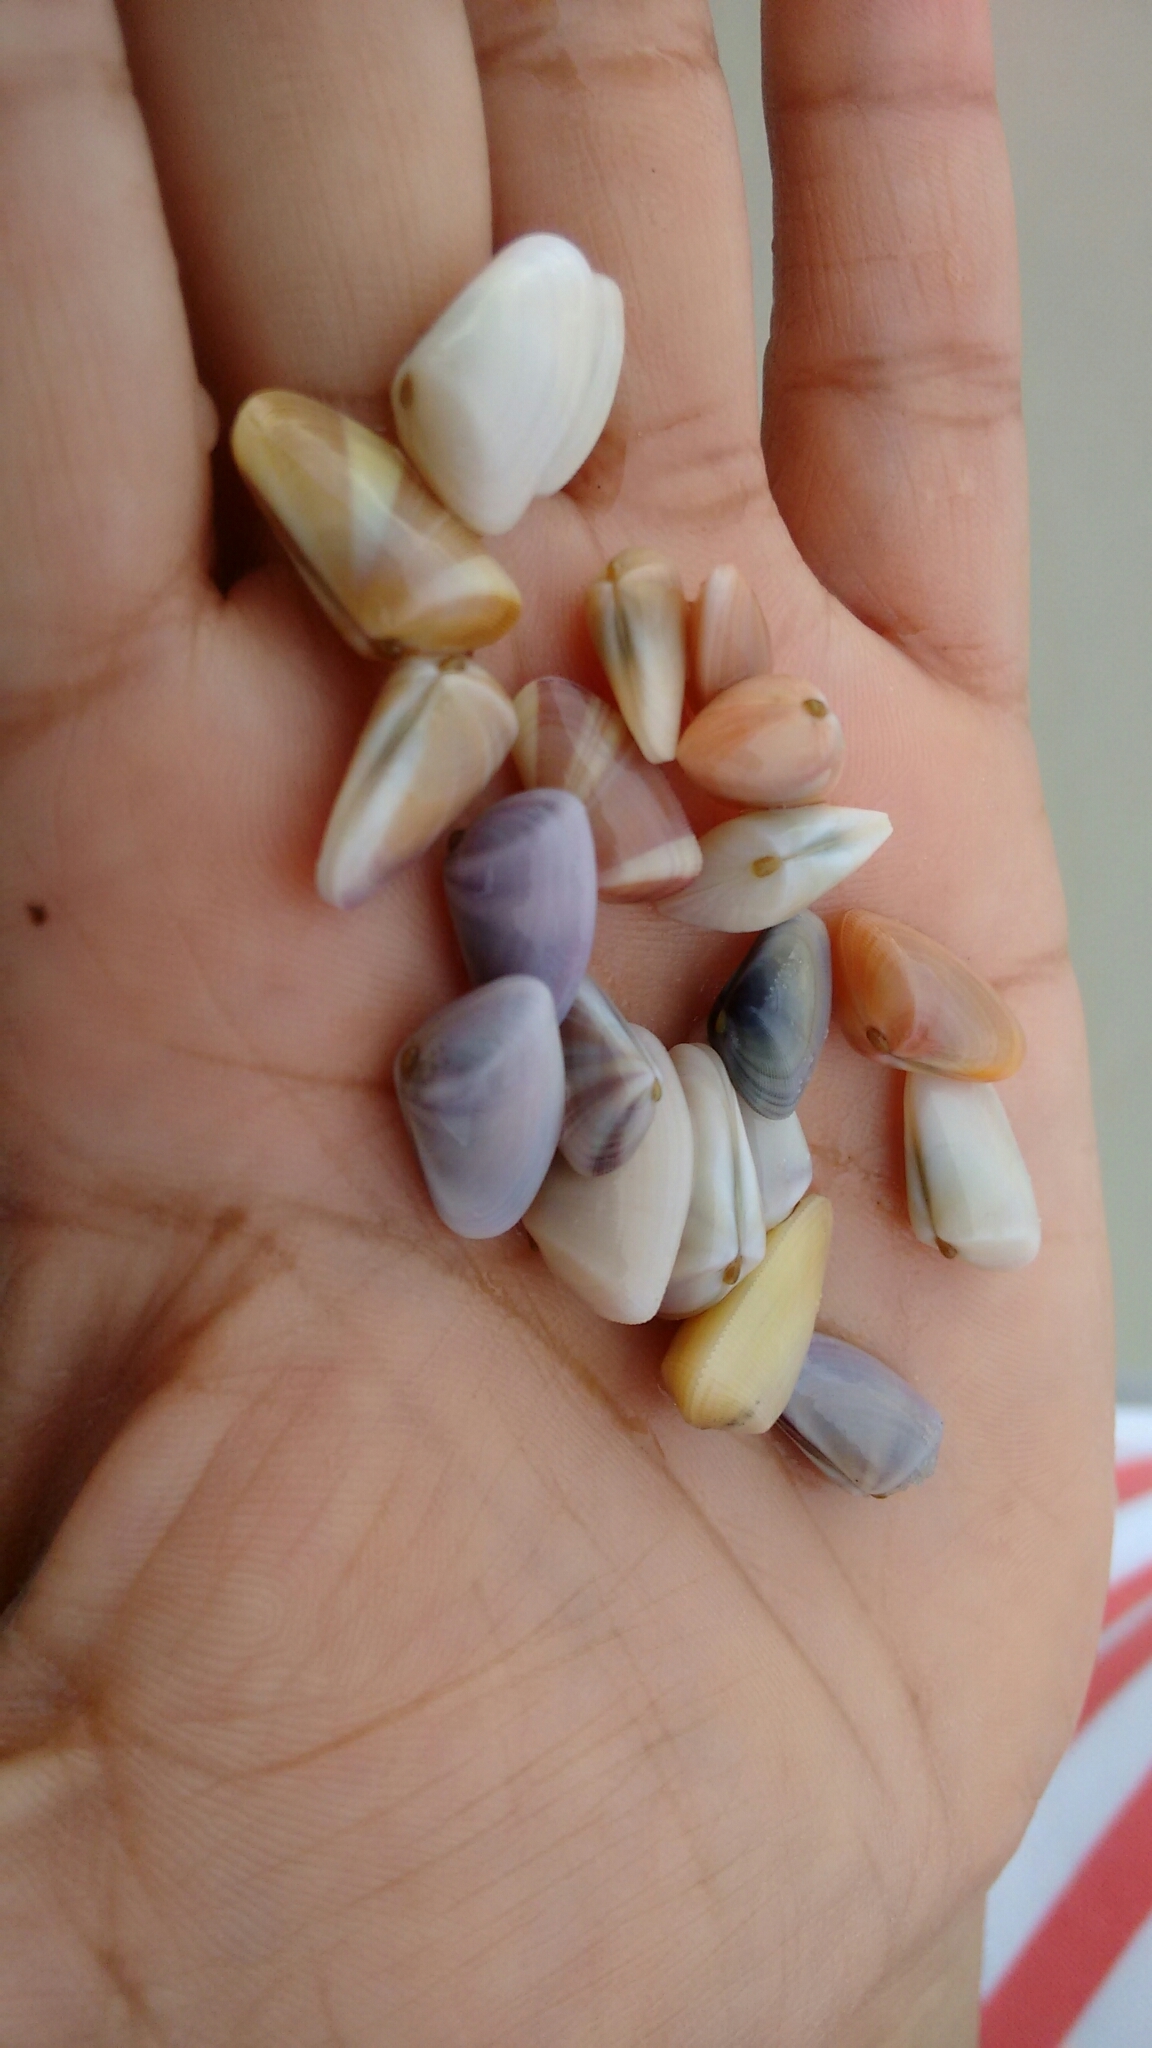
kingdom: Animalia
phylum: Mollusca
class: Bivalvia
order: Cardiida
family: Donacidae
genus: Donax
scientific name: Donax variabilis
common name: Butterfly shell
